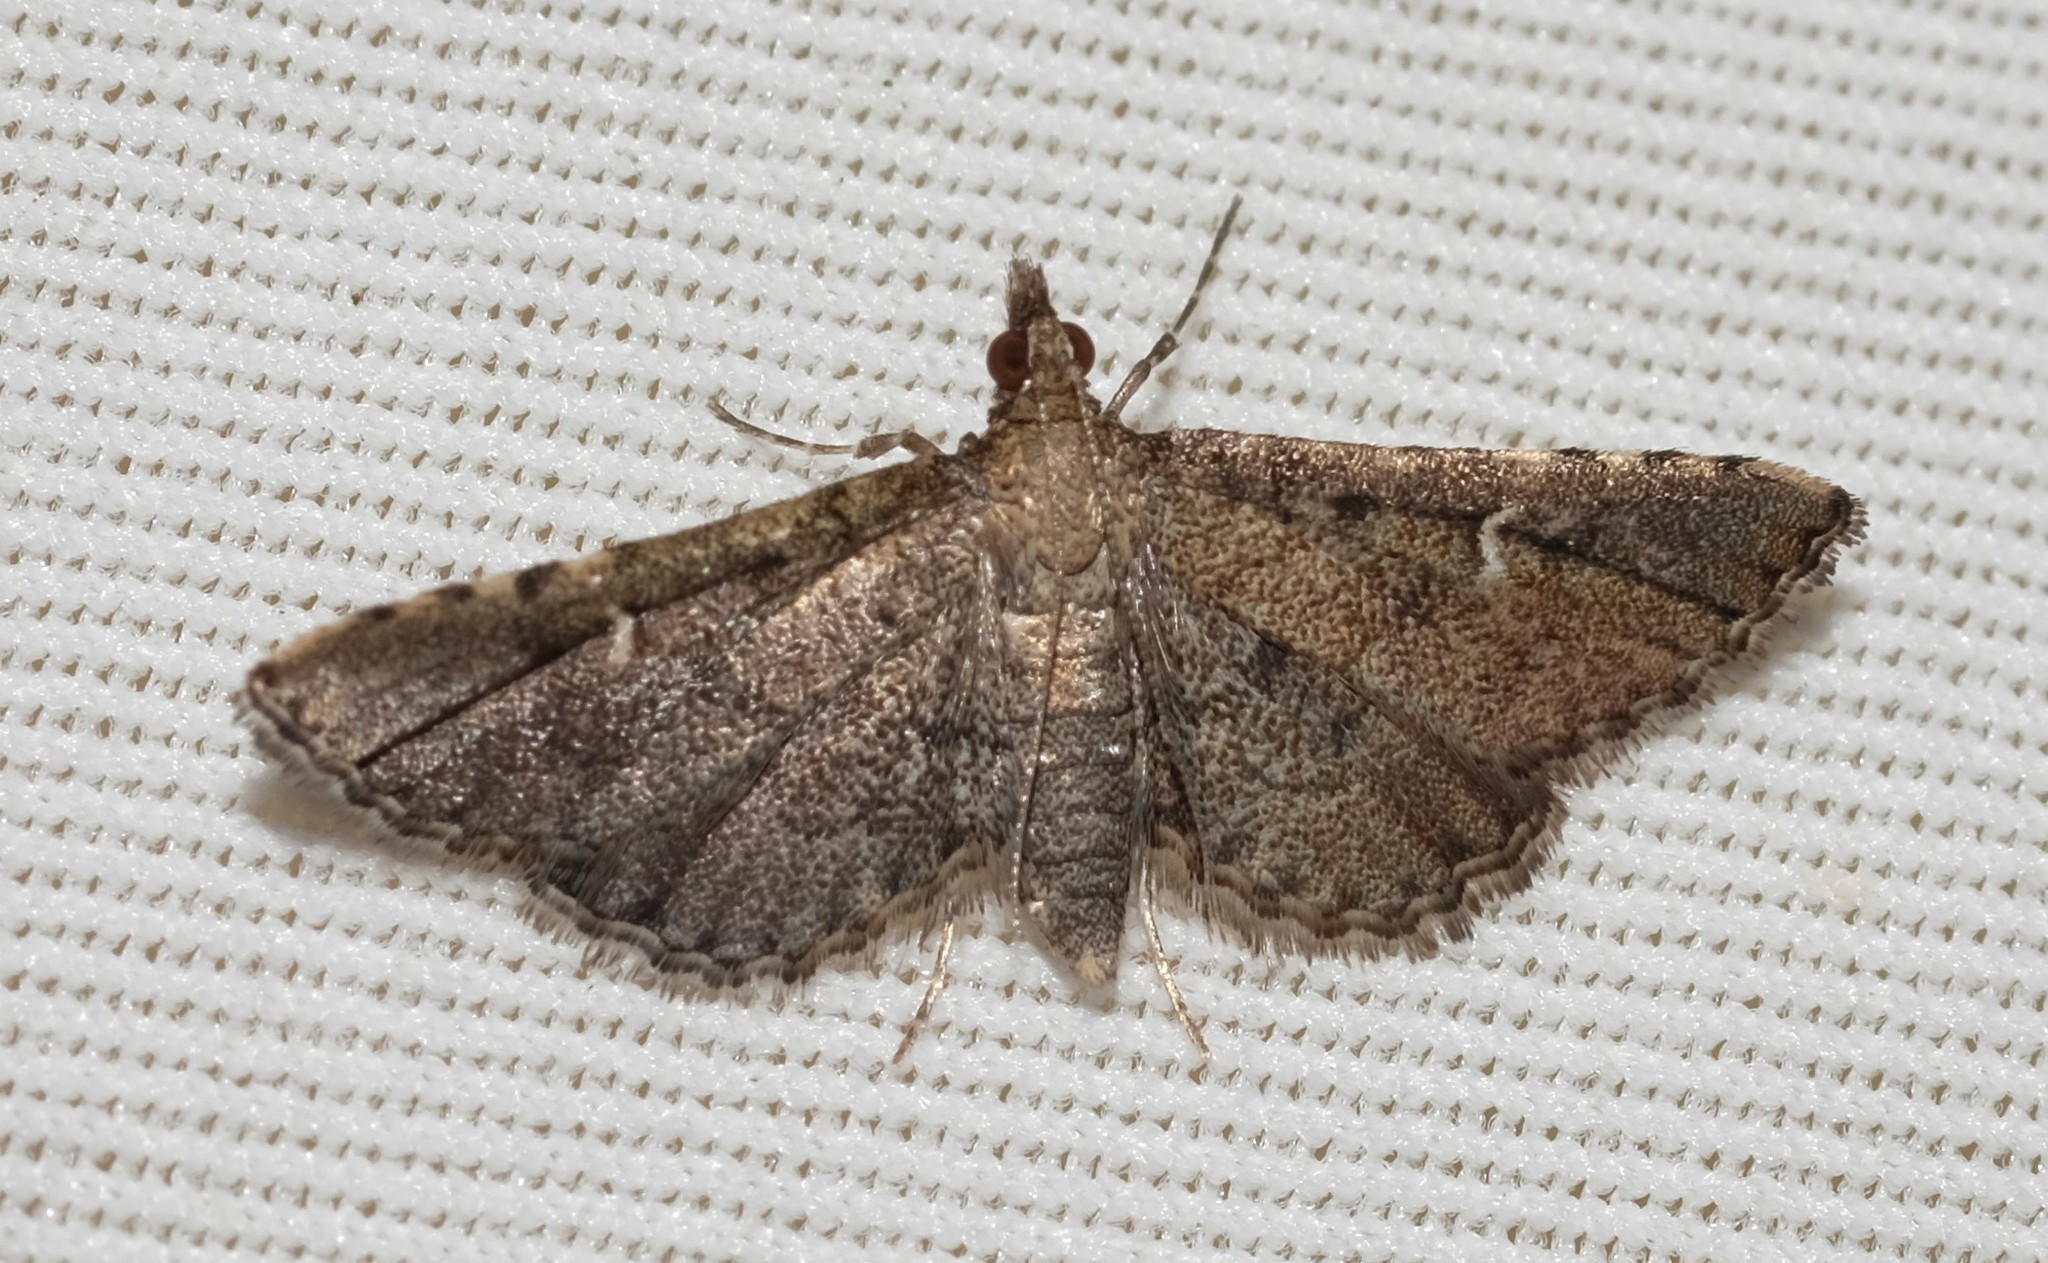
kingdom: Animalia
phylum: Arthropoda
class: Insecta
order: Lepidoptera
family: Crambidae
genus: Metasia
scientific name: Metasia capnochroa
